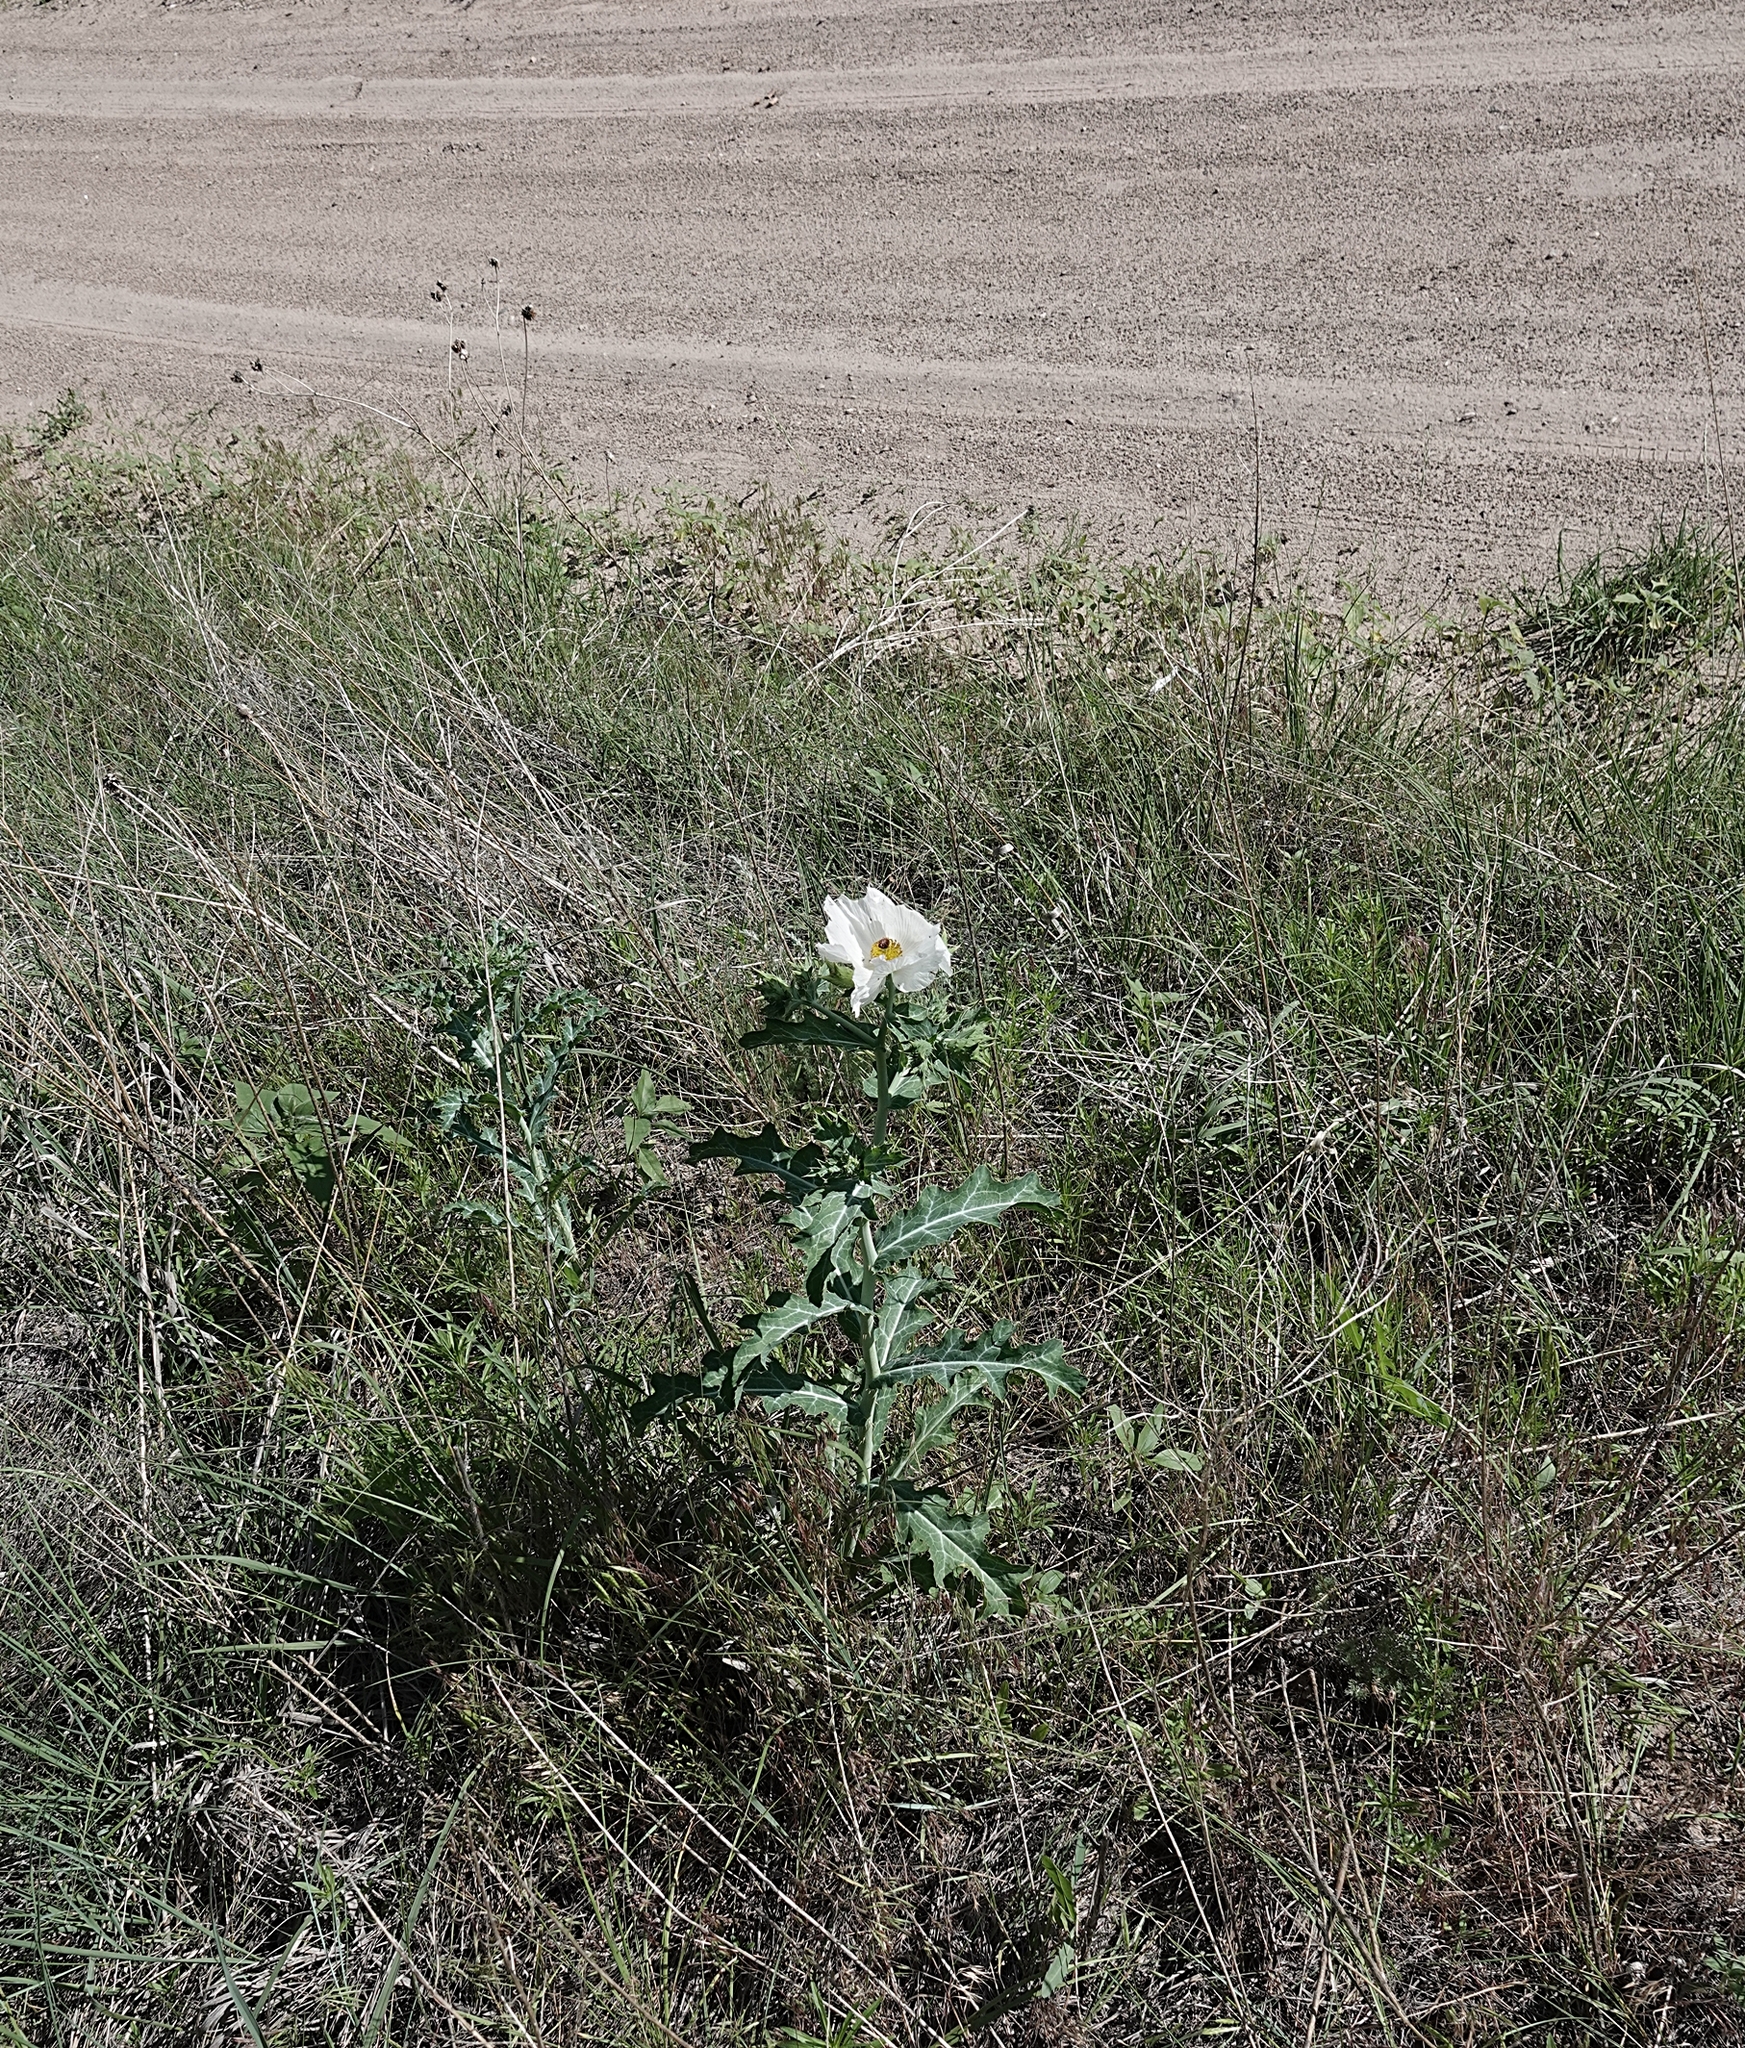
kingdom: Plantae
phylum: Tracheophyta
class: Magnoliopsida
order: Ranunculales
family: Papaveraceae
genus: Argemone
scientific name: Argemone polyanthemos
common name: Plains prickly-poppy
